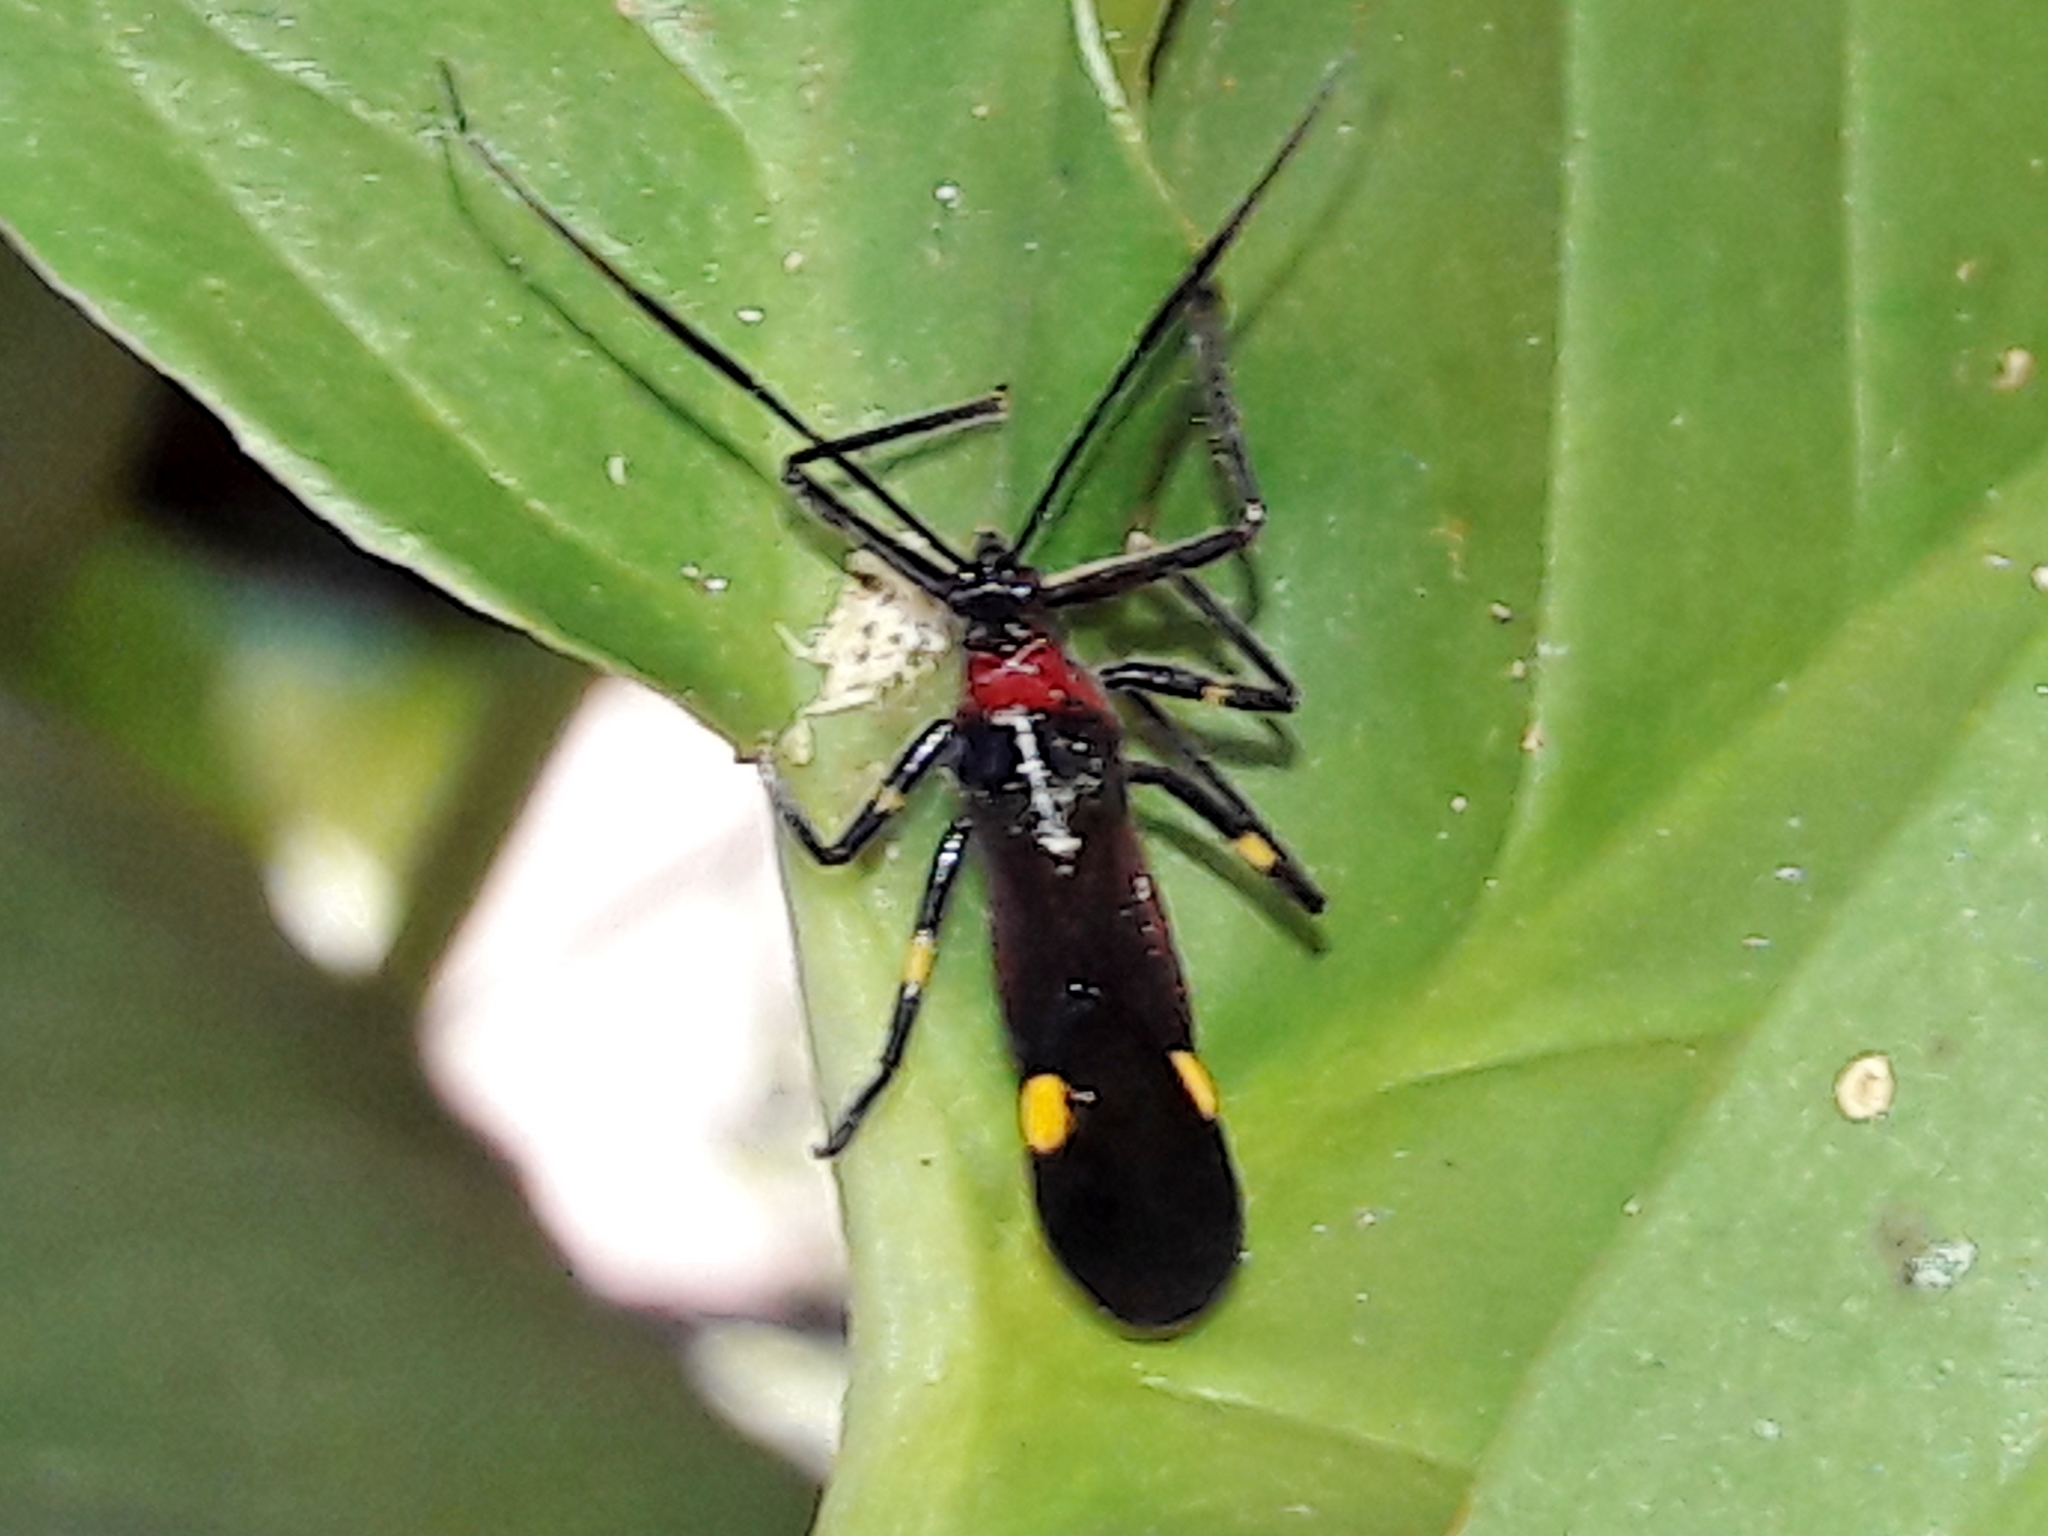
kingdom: Animalia
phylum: Arthropoda
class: Insecta
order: Hemiptera
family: Reduviidae
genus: Graptocleptes
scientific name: Graptocleptes bicolor
